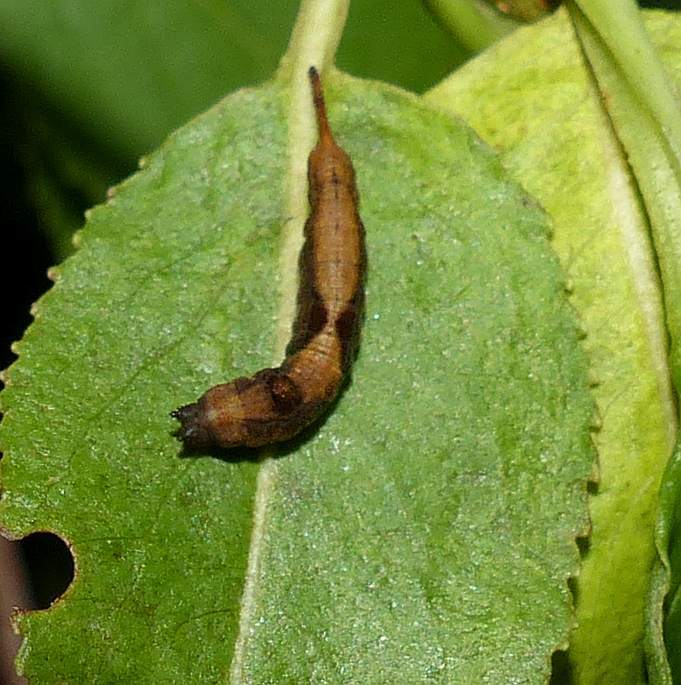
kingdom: Animalia
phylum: Arthropoda
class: Insecta
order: Lepidoptera
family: Drepanidae
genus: Oreta
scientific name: Oreta rosea
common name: Rose hooktip
